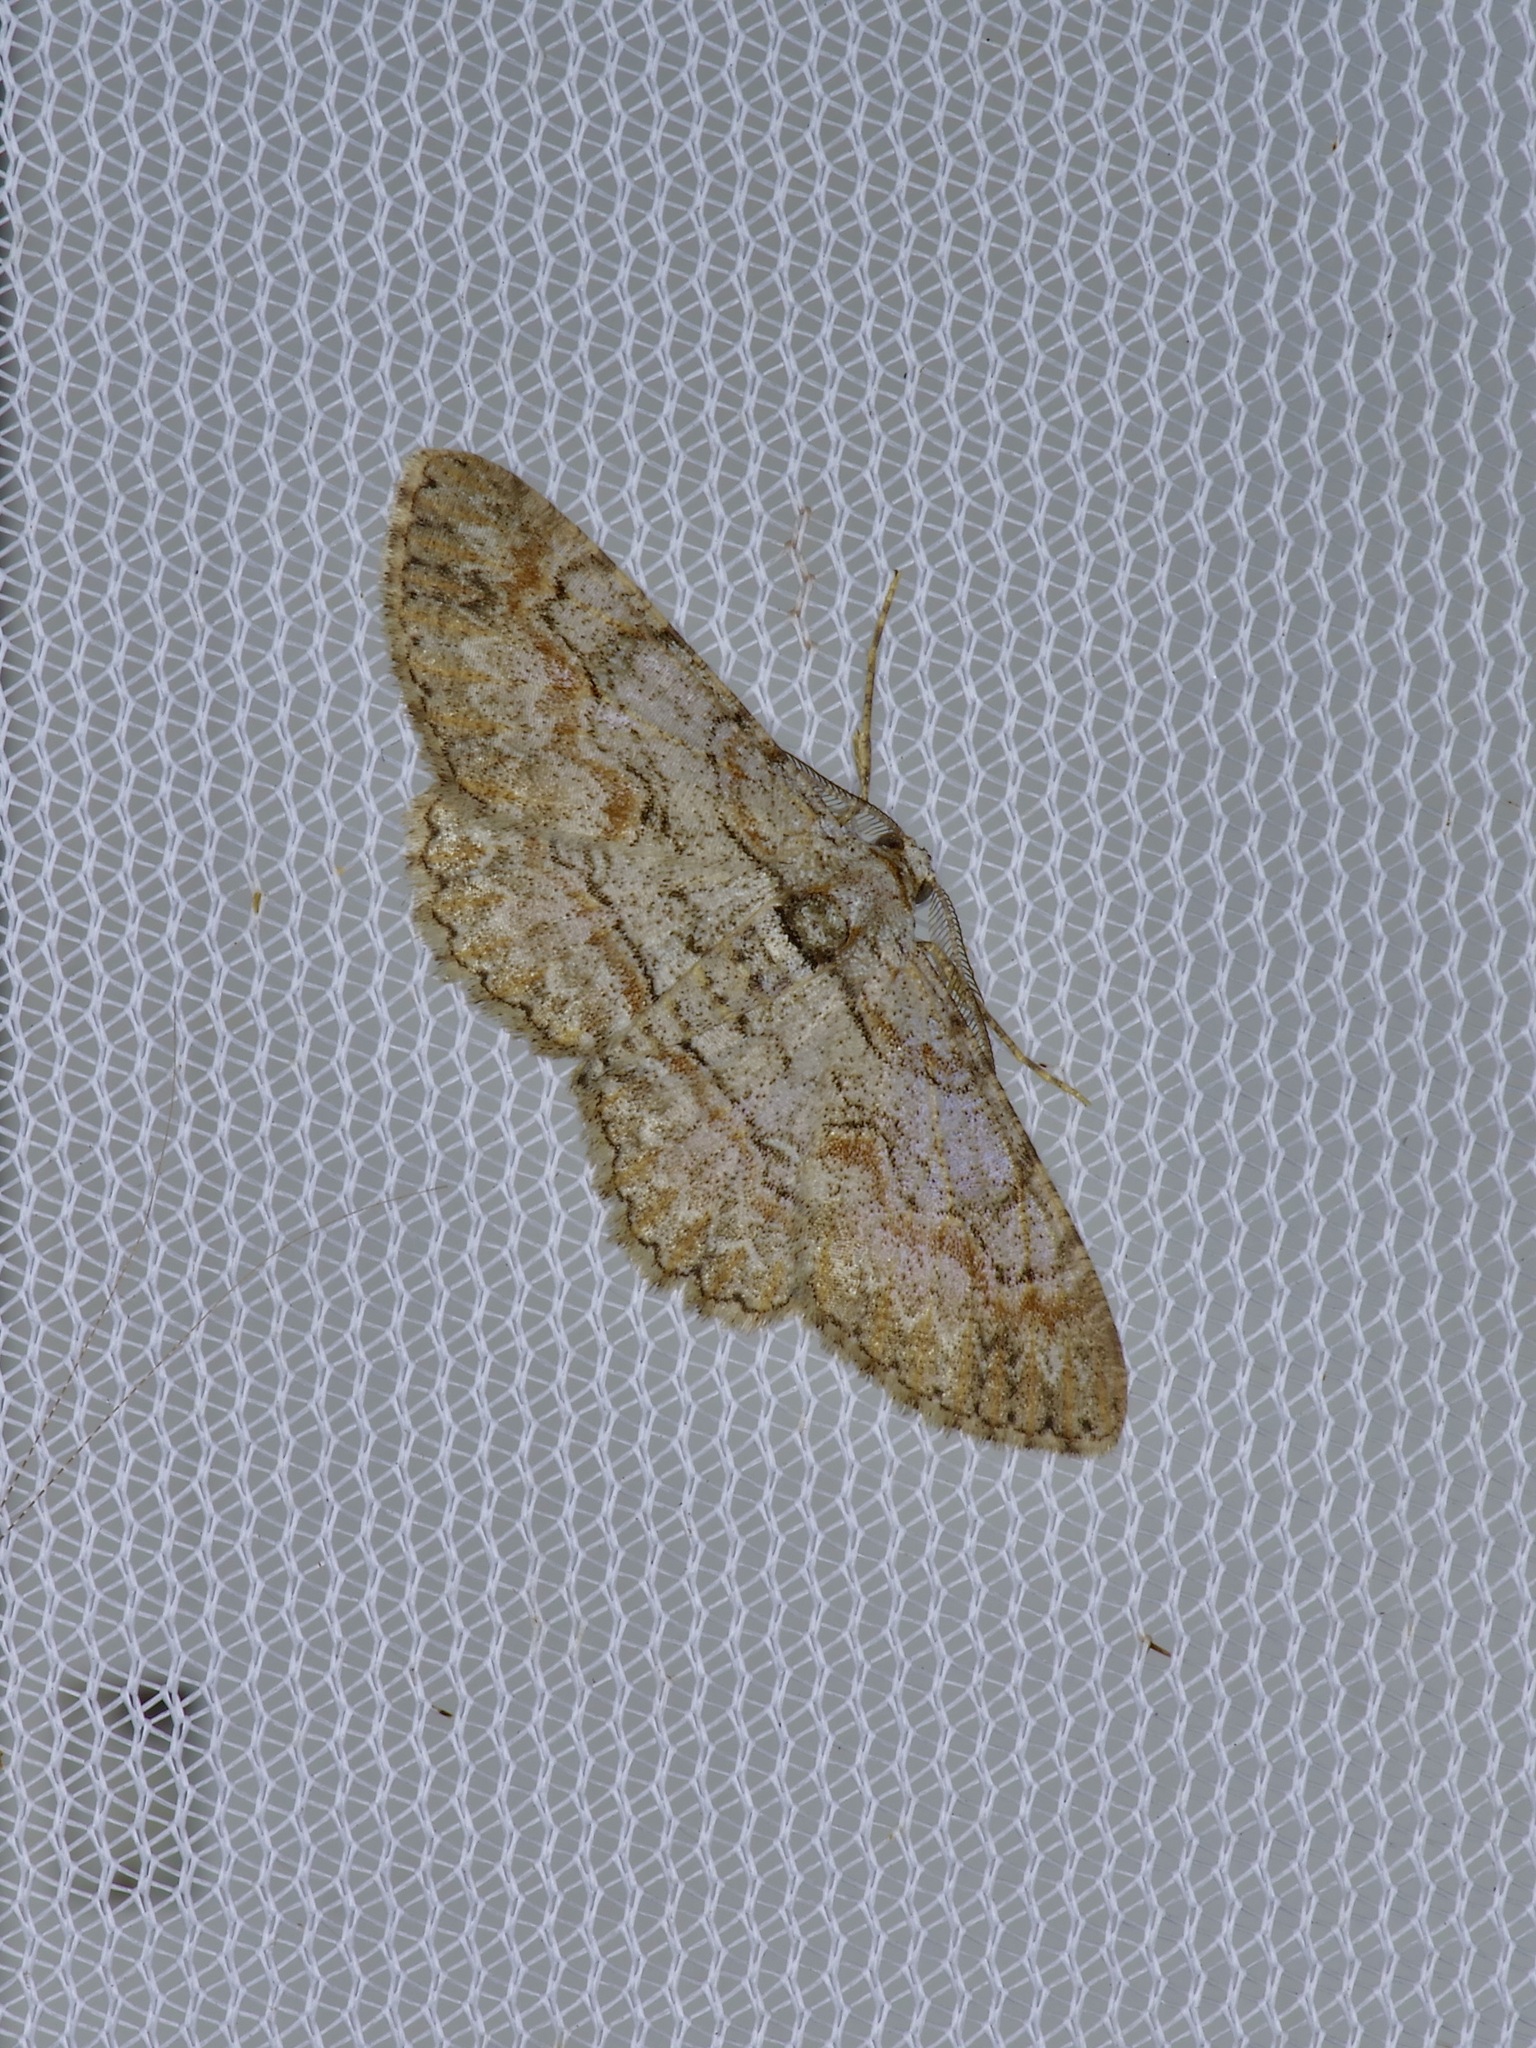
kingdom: Animalia
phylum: Arthropoda
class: Insecta
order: Lepidoptera
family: Geometridae
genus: Iridopsis
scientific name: Iridopsis defectaria
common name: Brown-shaded gray
